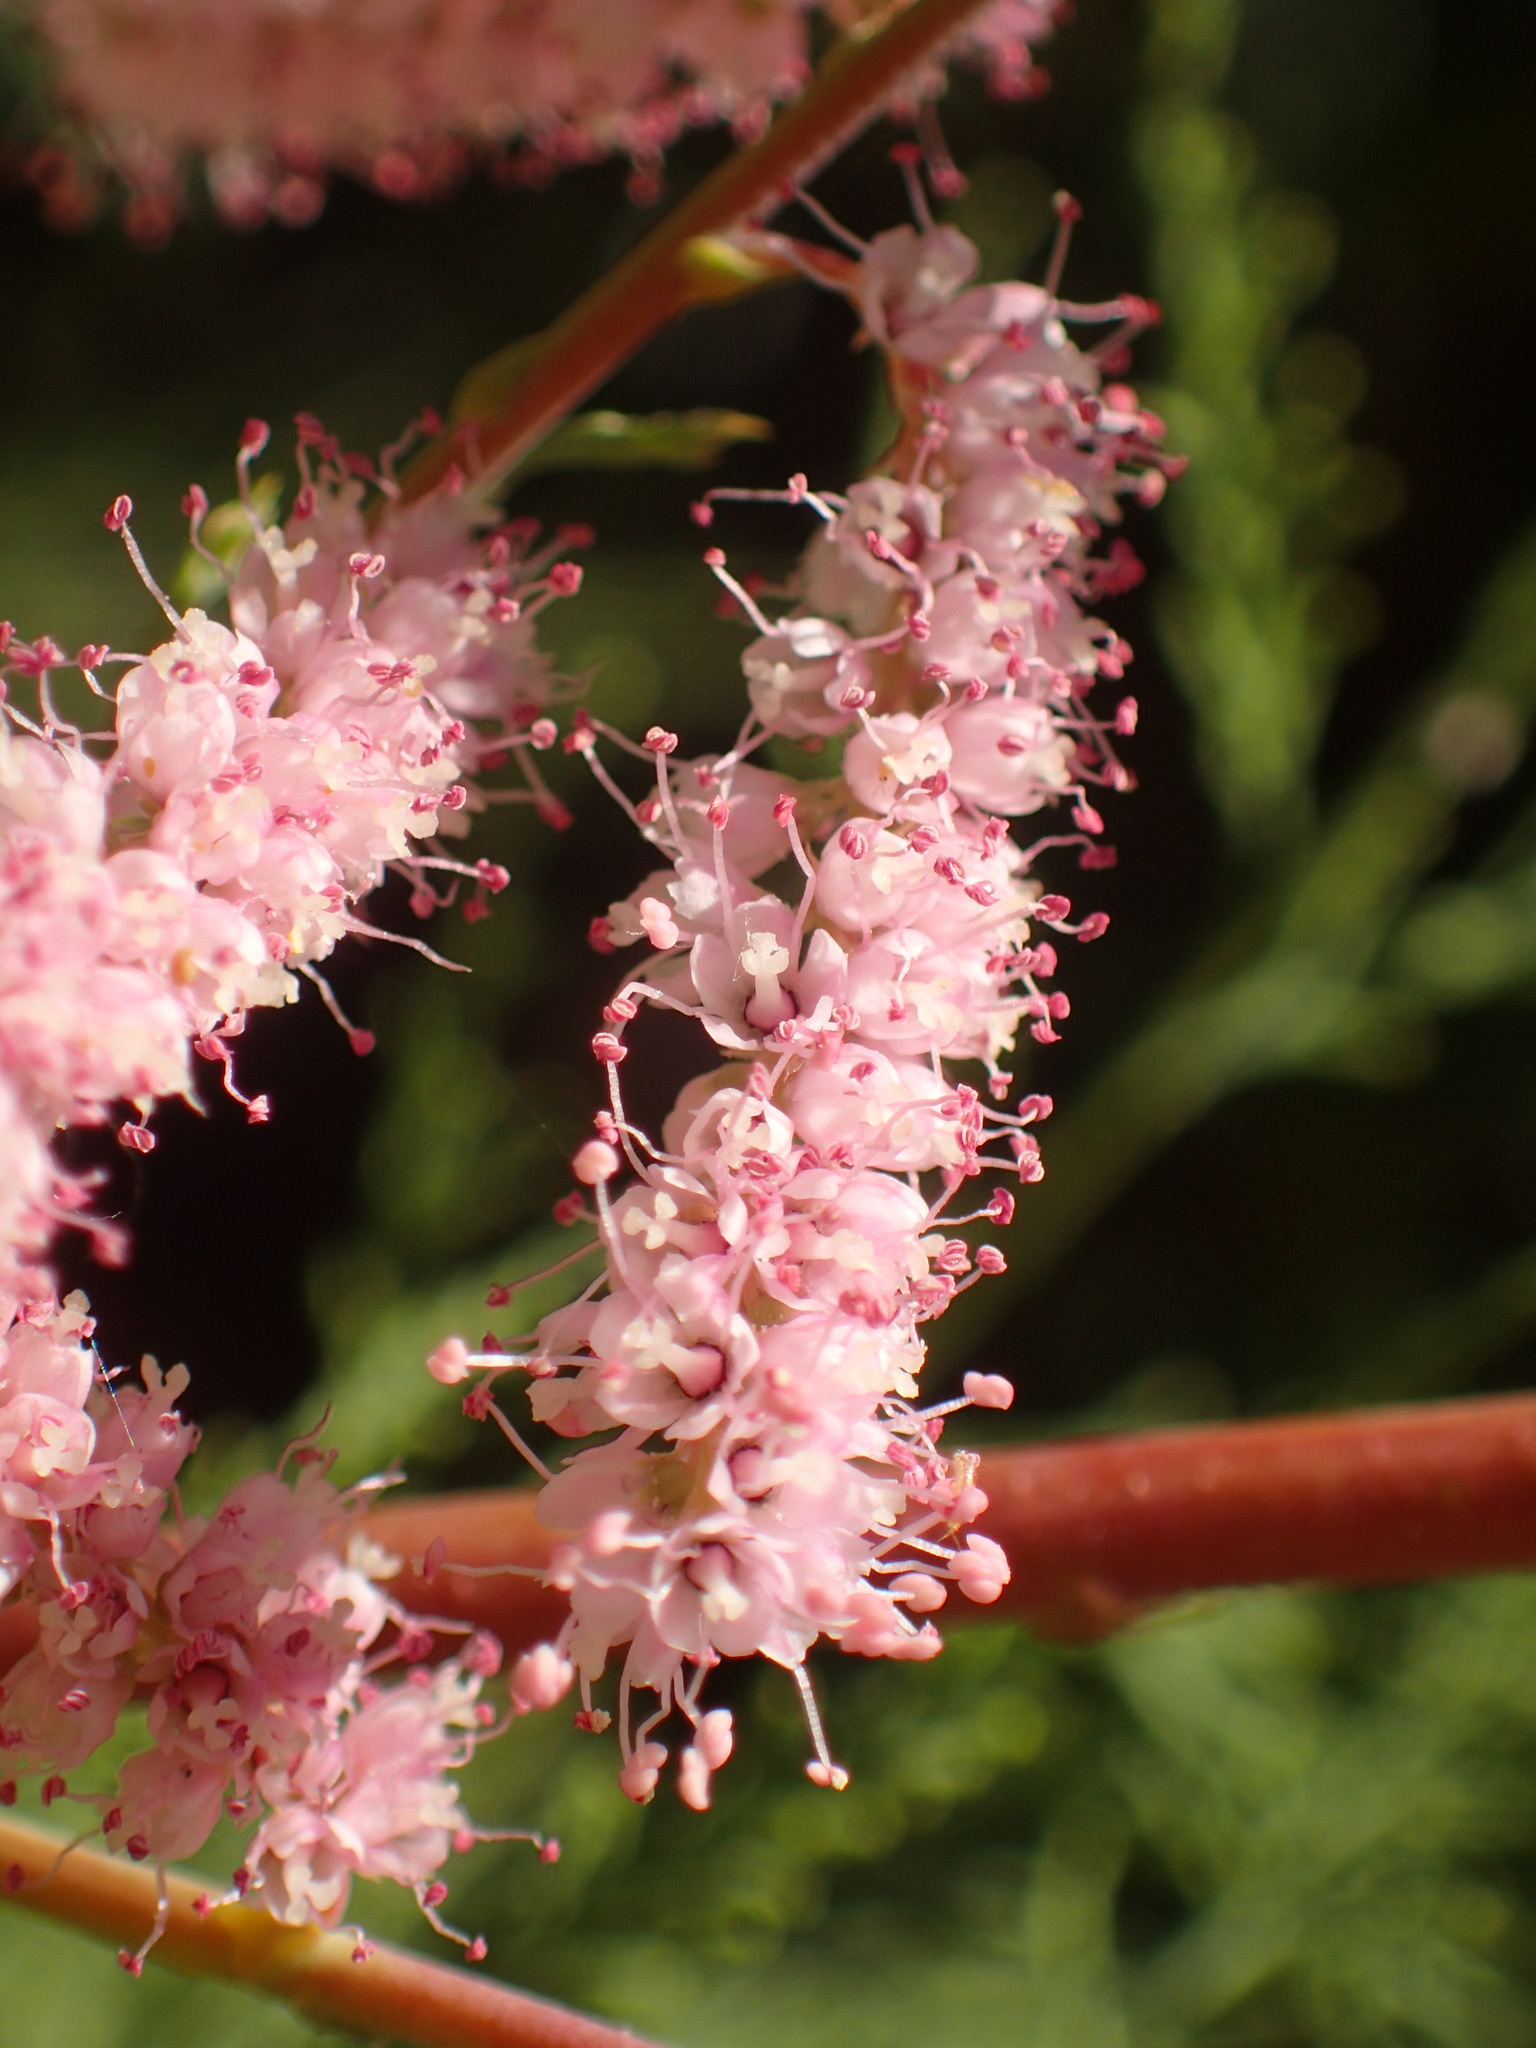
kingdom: Plantae
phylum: Tracheophyta
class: Magnoliopsida
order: Caryophyllales
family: Tamaricaceae
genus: Tamarix
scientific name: Tamarix ramosissima
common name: Pink tamarisk
